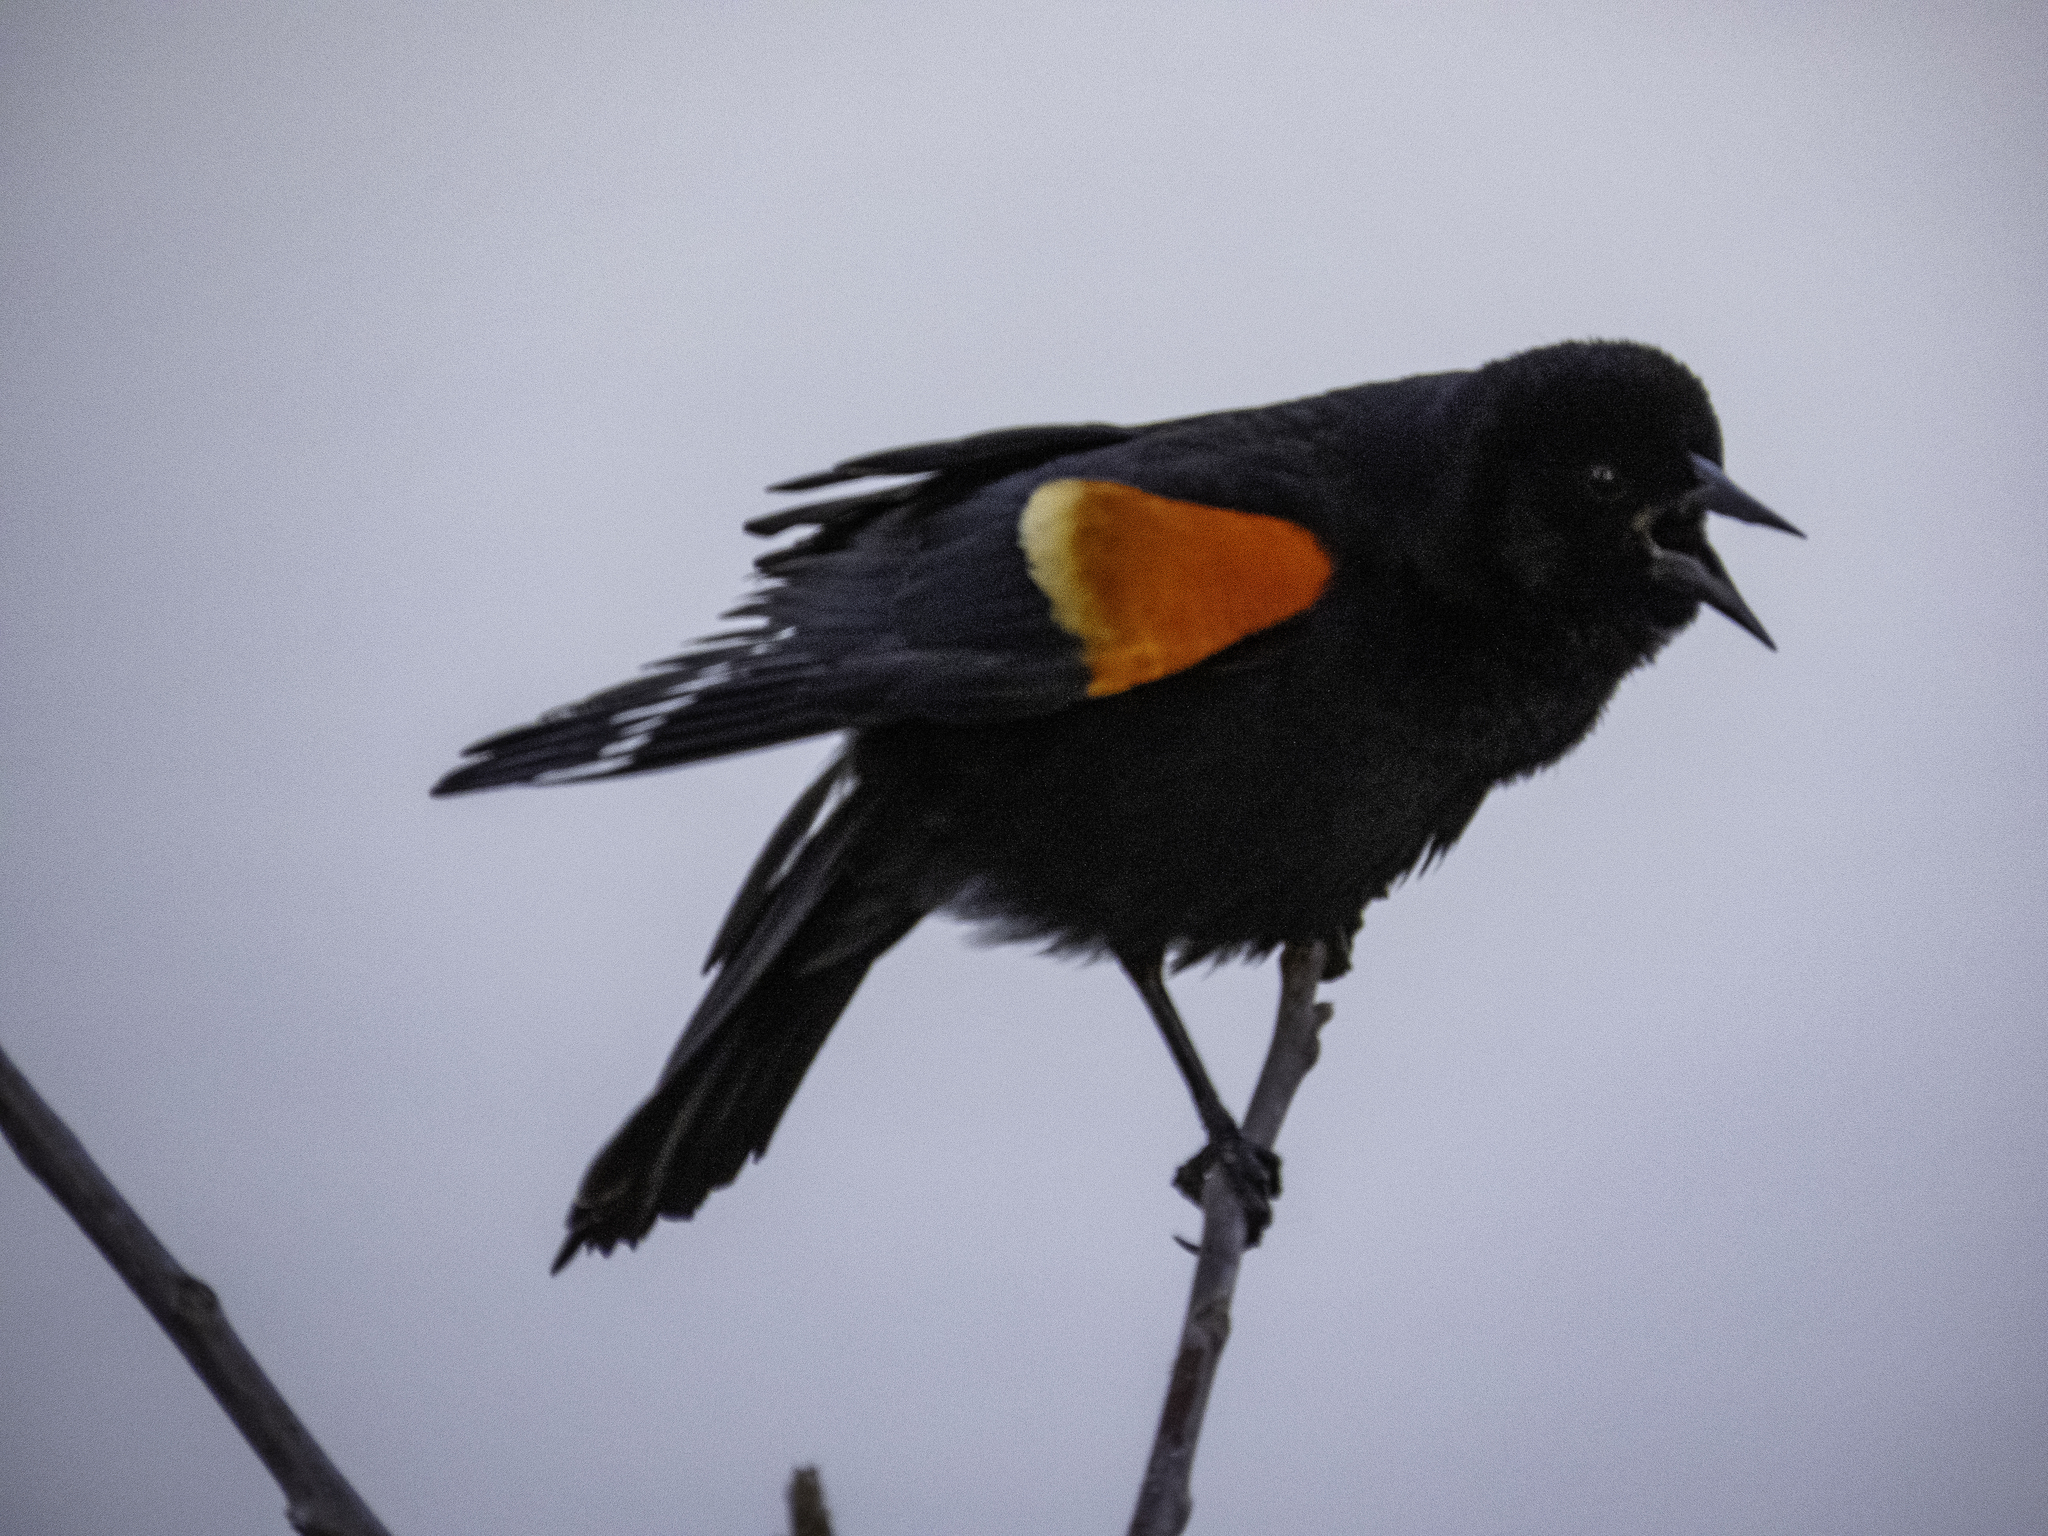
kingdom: Animalia
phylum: Chordata
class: Aves
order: Passeriformes
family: Icteridae
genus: Agelaius
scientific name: Agelaius phoeniceus
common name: Red-winged blackbird
